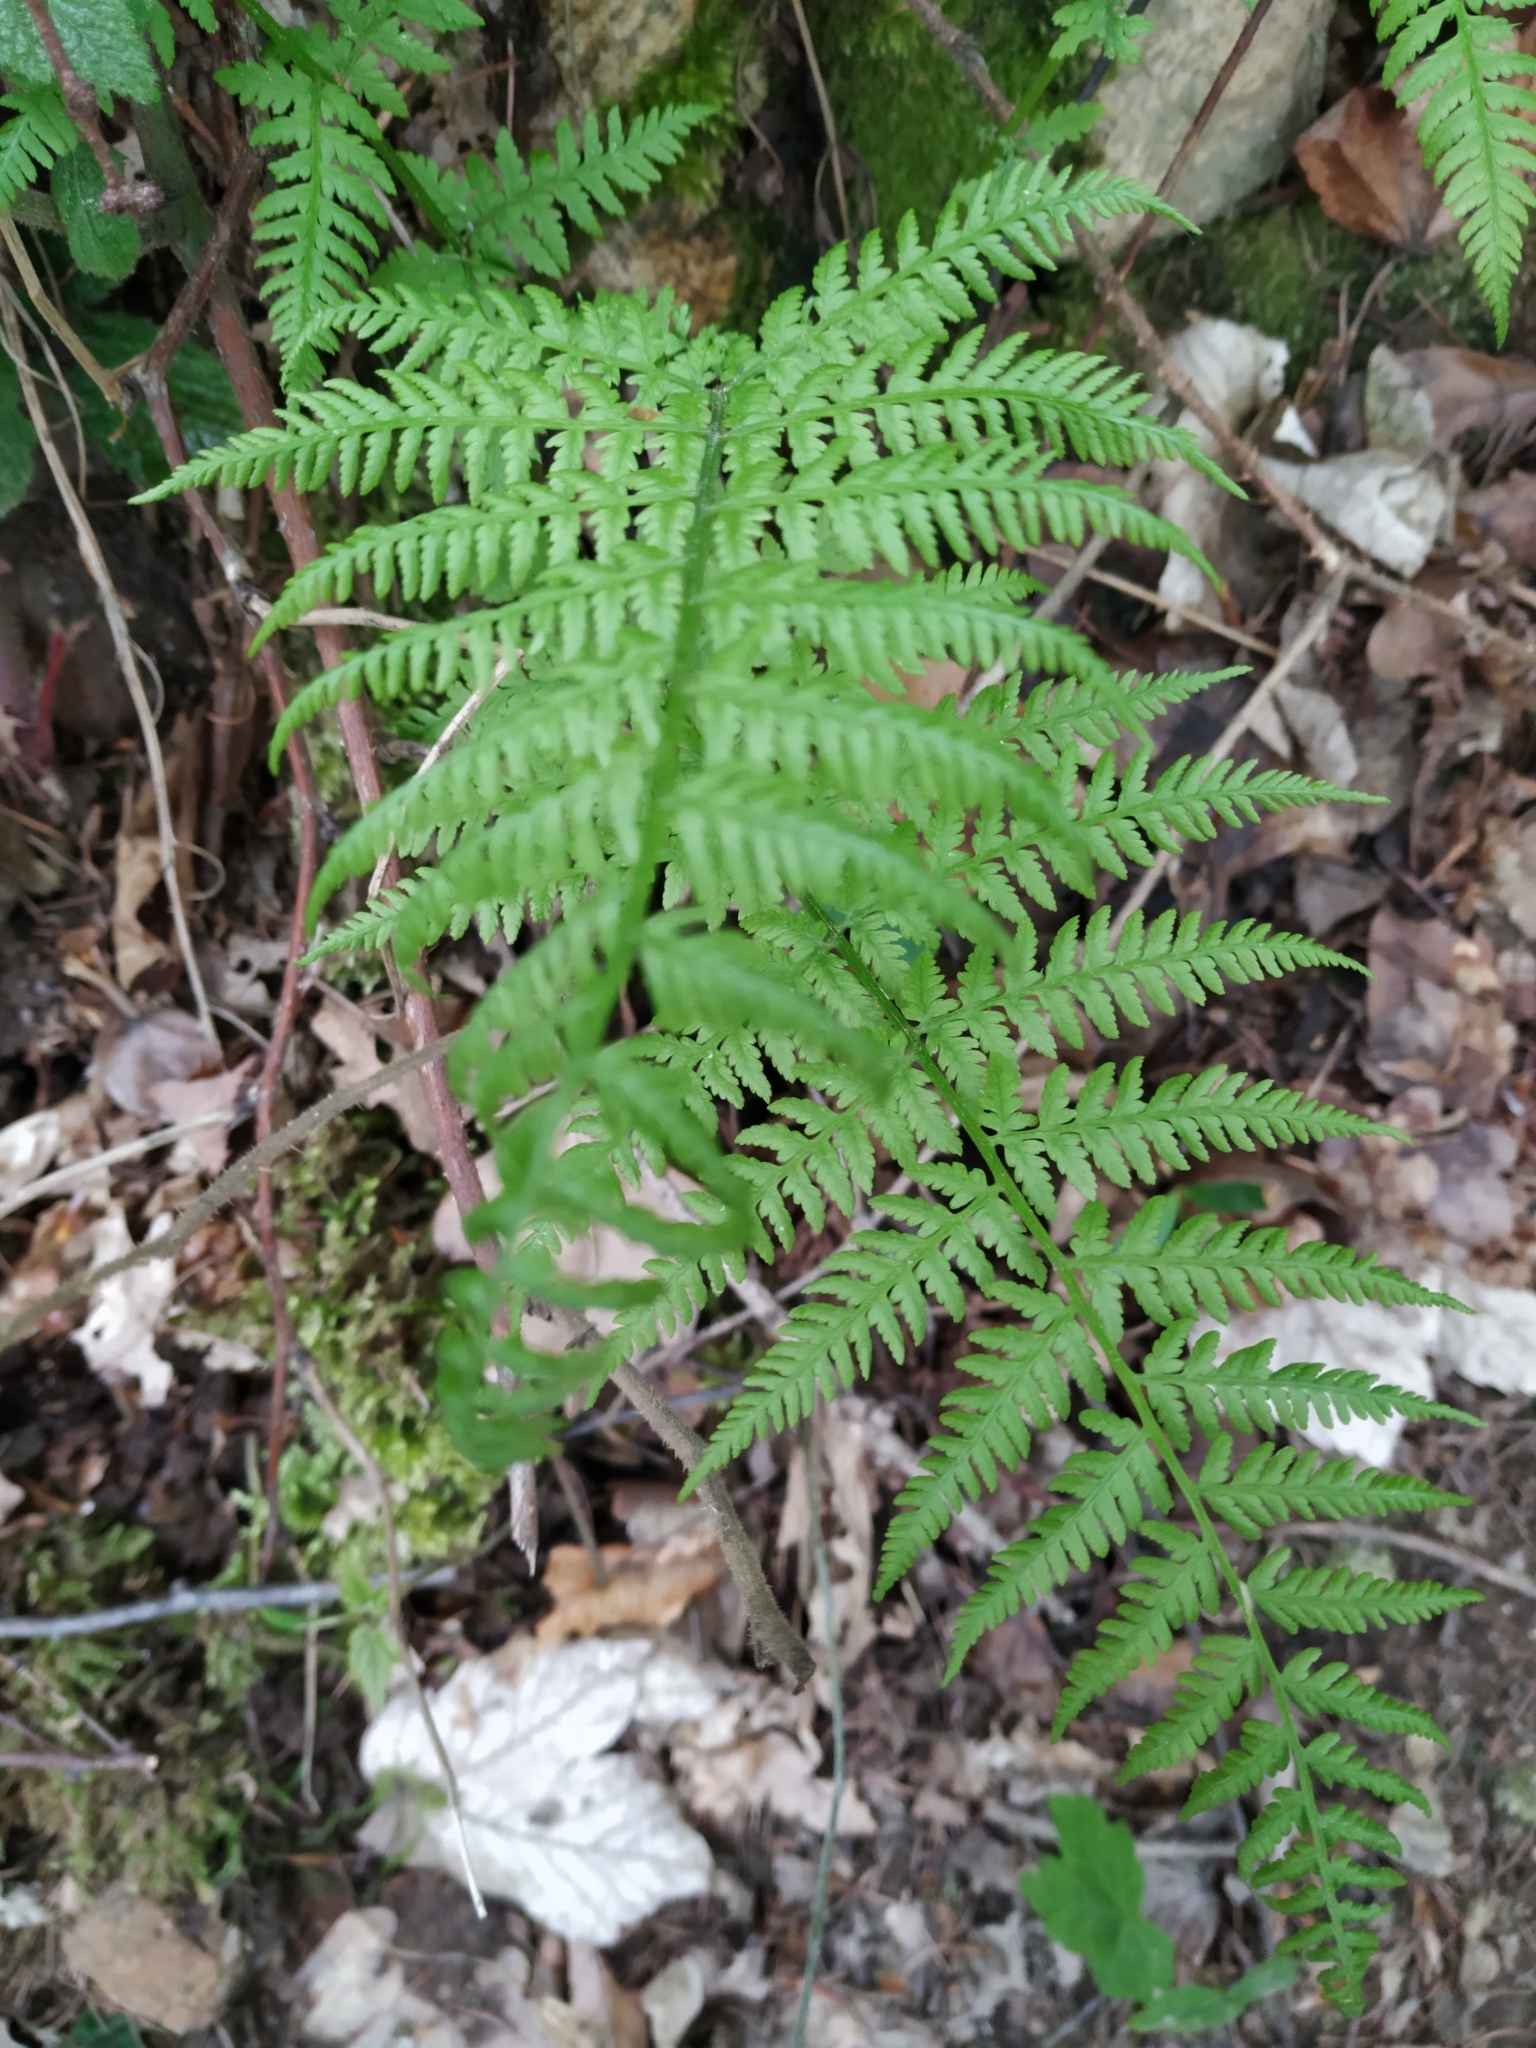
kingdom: Plantae
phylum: Tracheophyta
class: Polypodiopsida
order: Polypodiales
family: Athyriaceae
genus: Athyrium
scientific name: Athyrium filix-femina
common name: Lady fern
